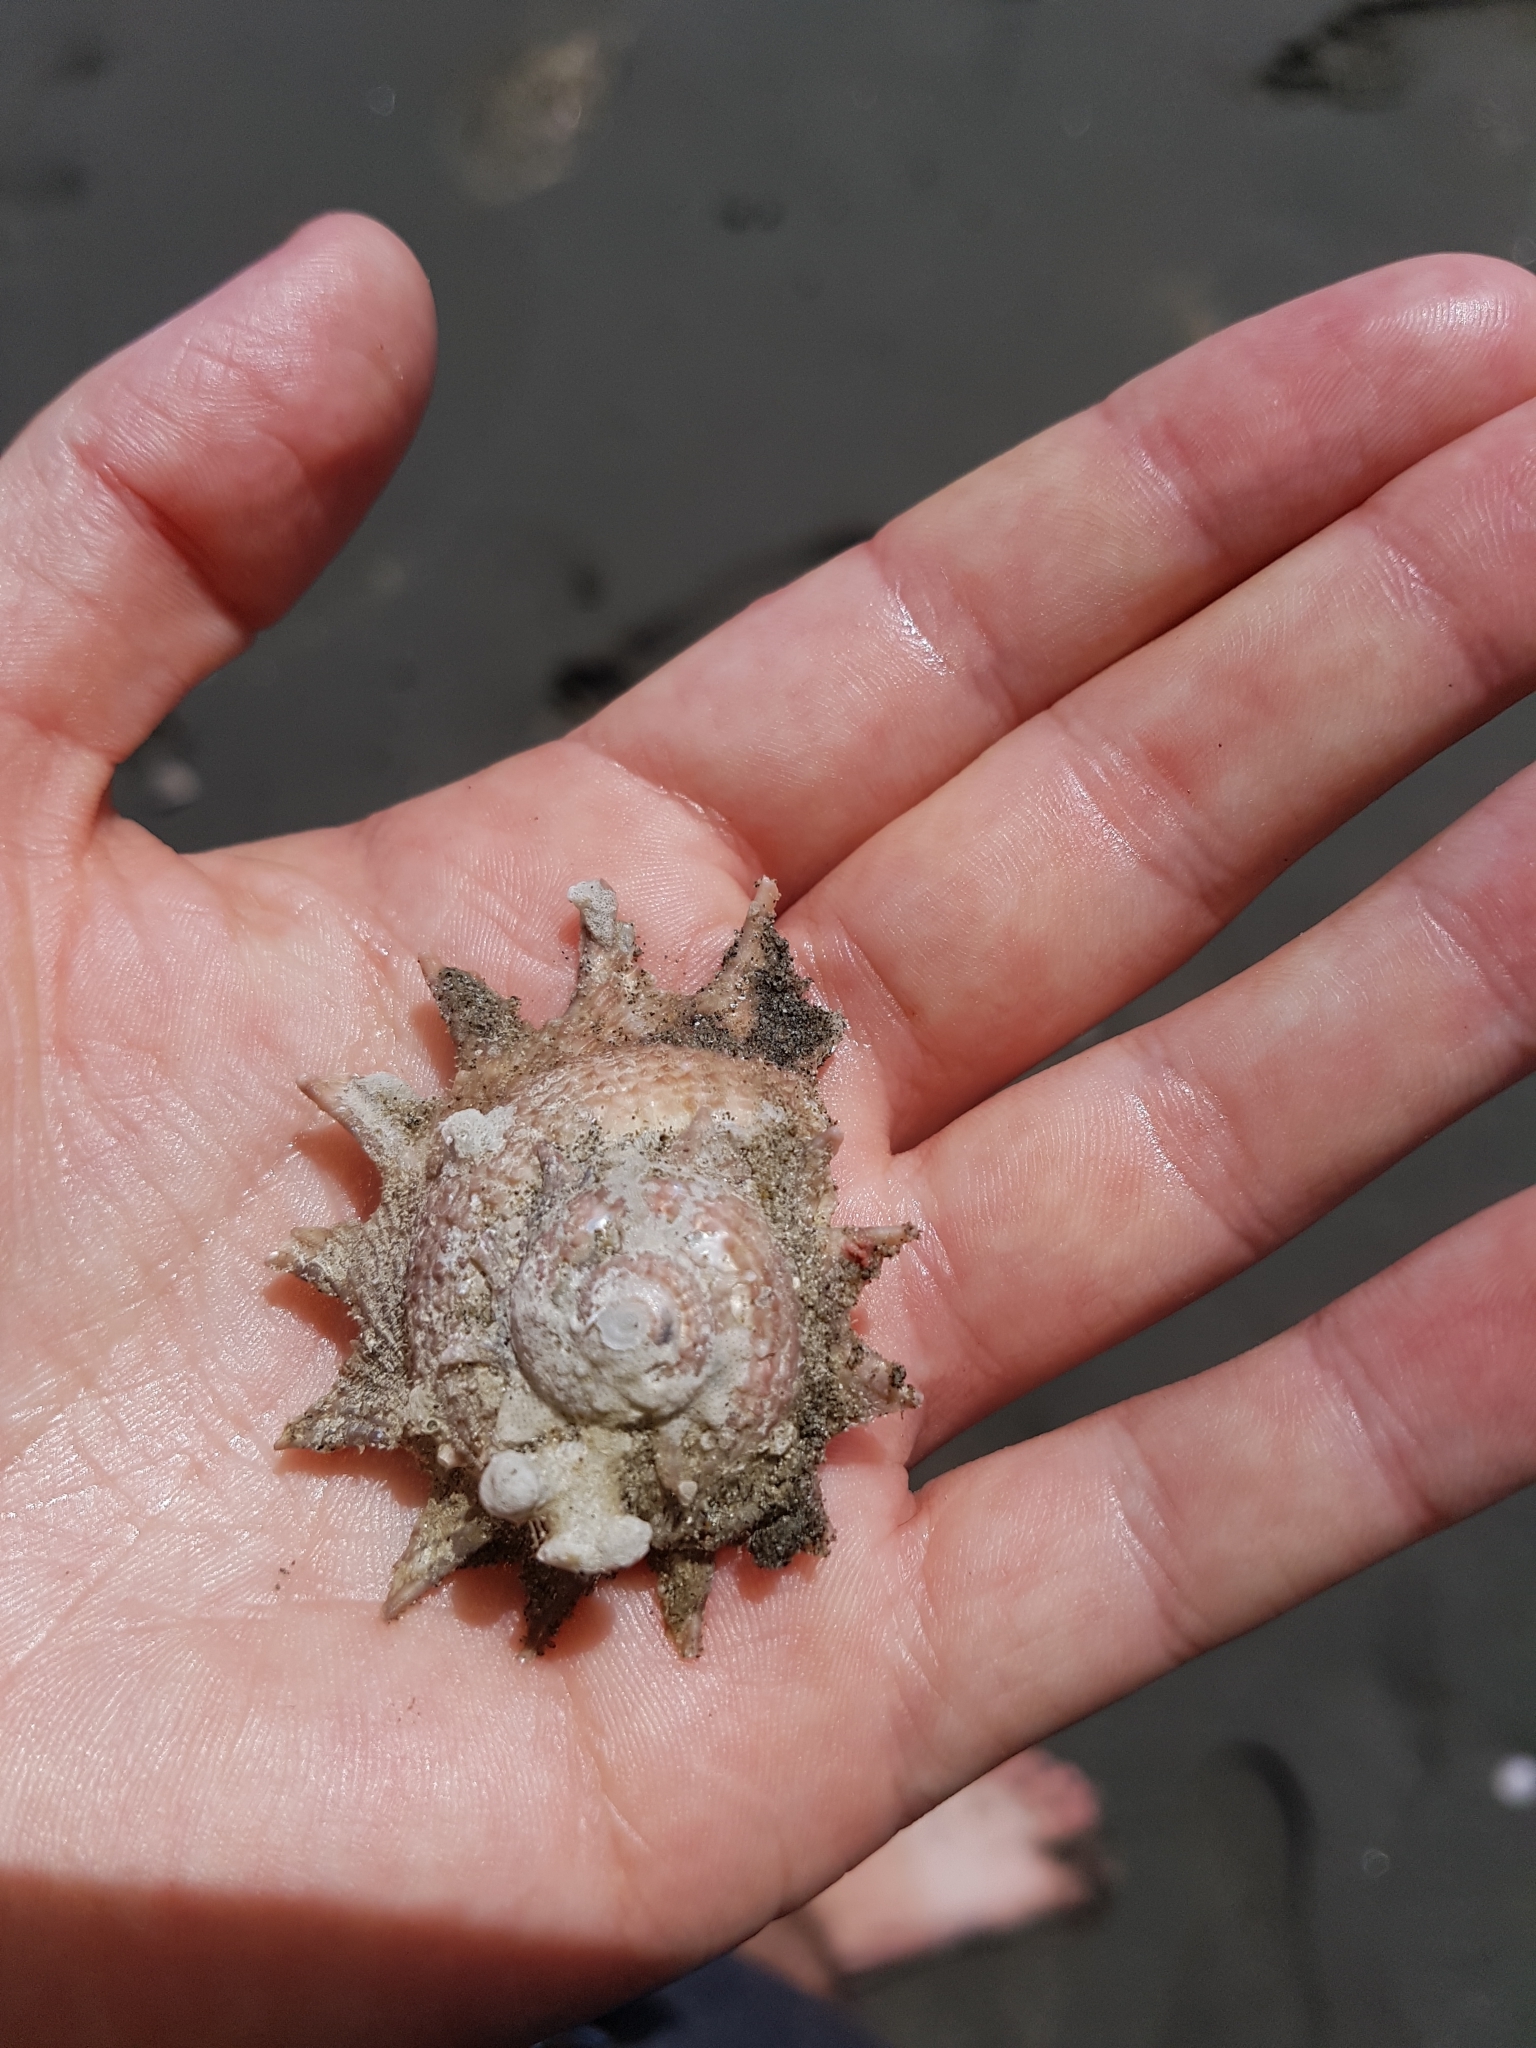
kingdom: Animalia
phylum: Mollusca
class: Gastropoda
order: Trochida
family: Turbinidae
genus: Astraea
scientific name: Astraea heliotropium
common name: Sun shell
